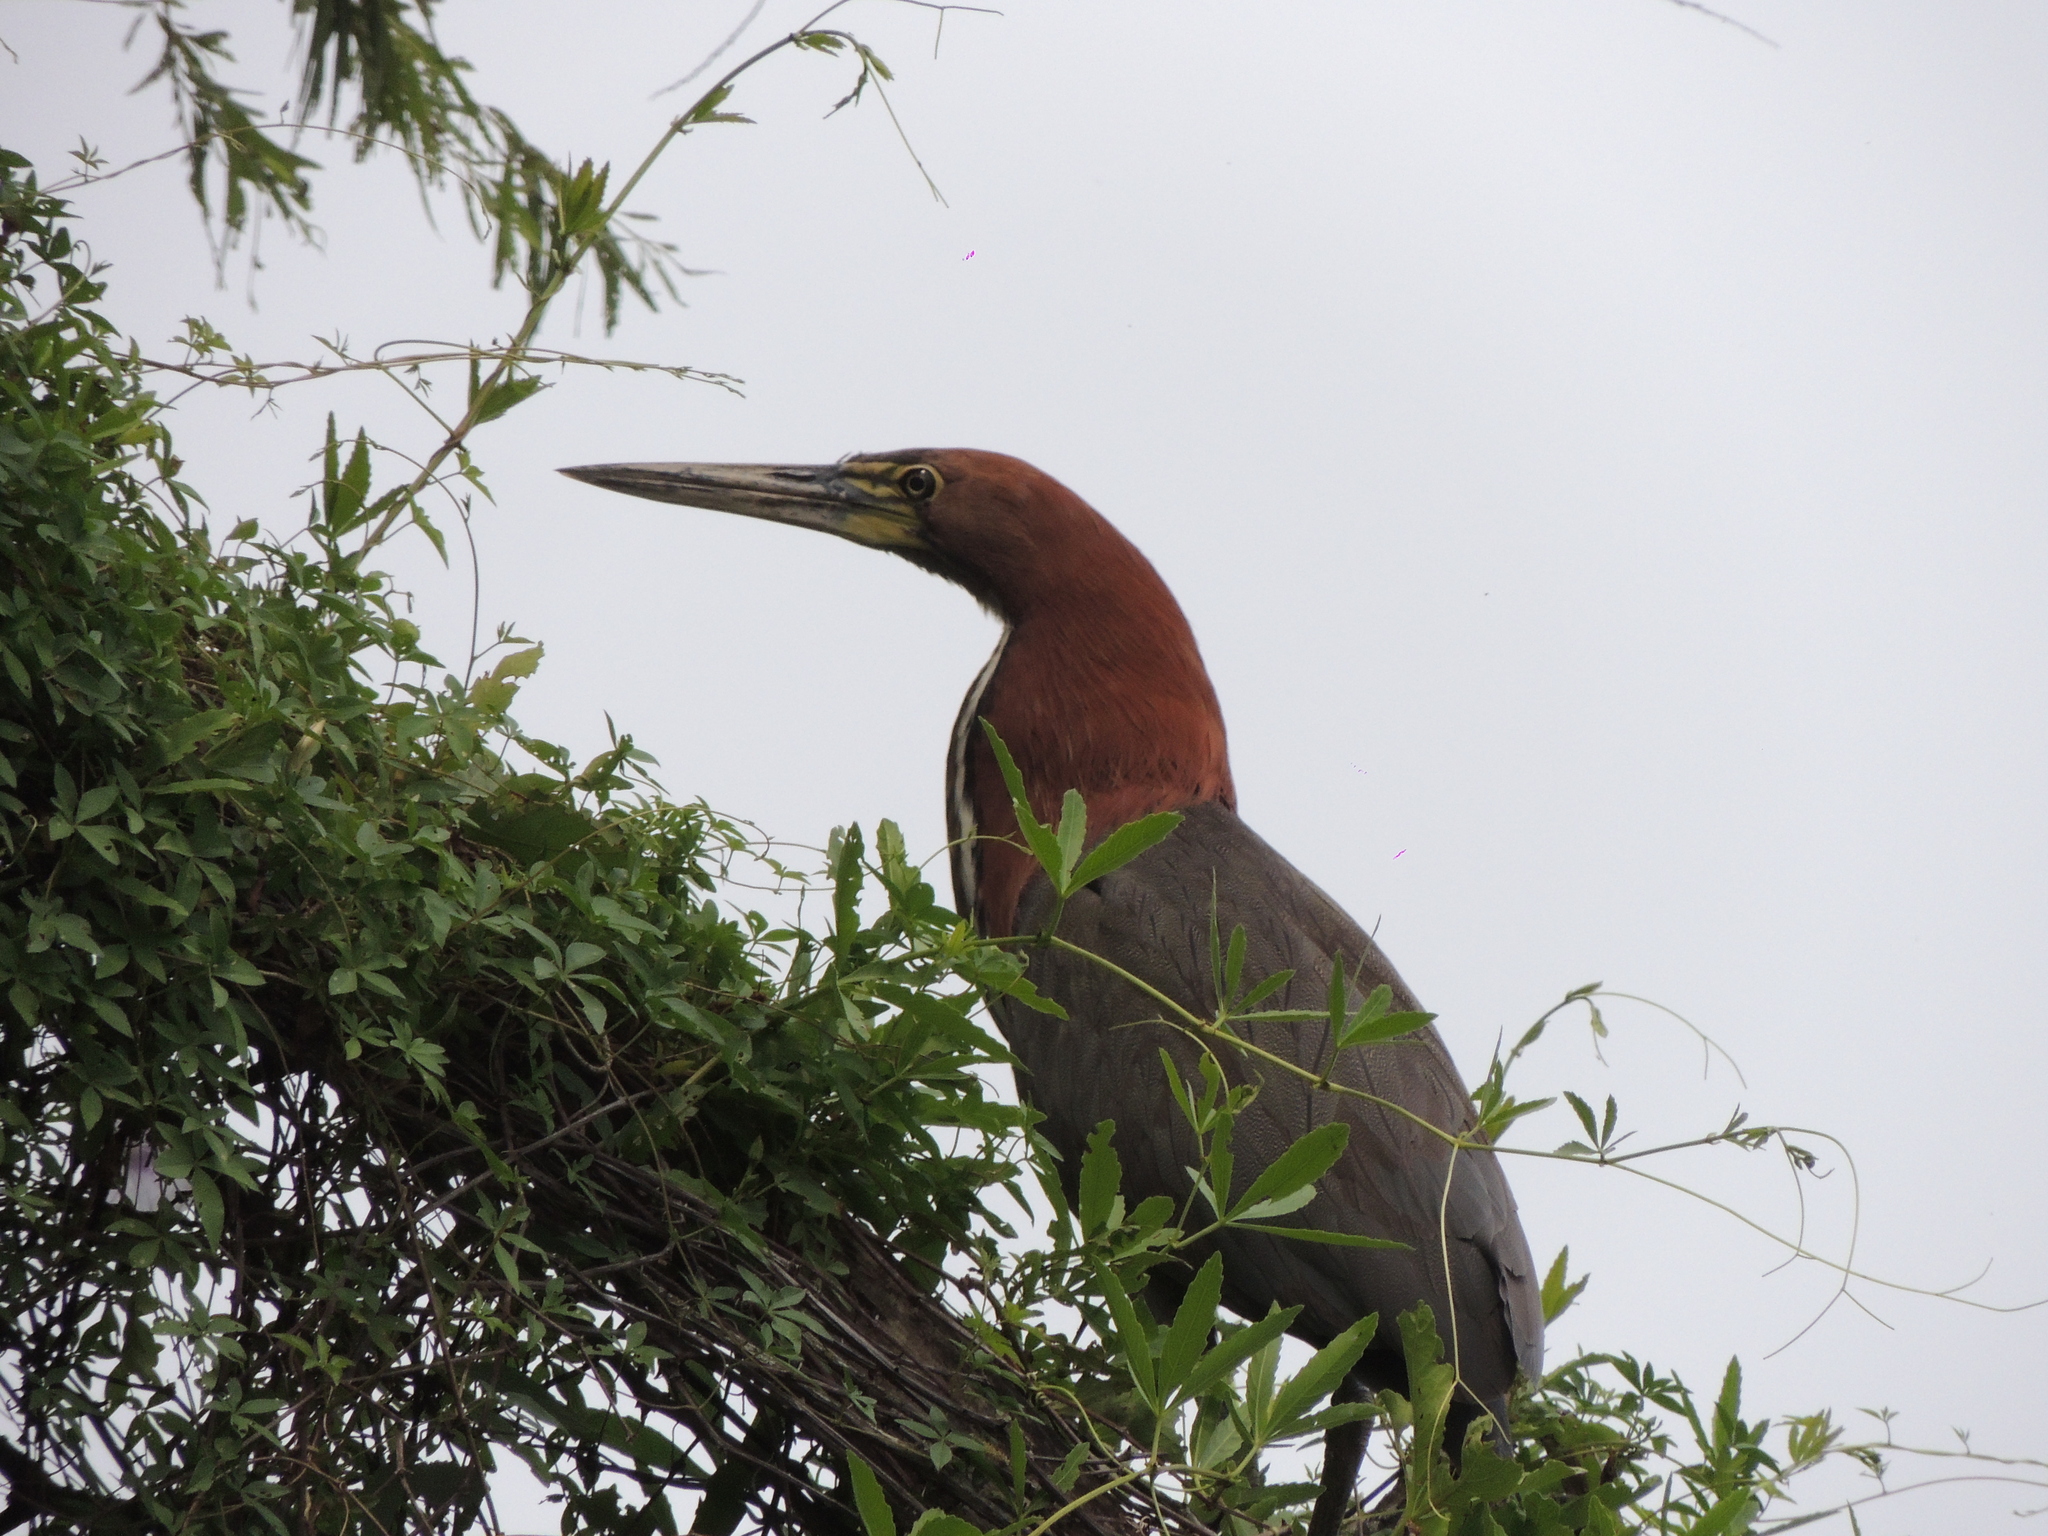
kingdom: Animalia
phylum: Chordata
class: Aves
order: Pelecaniformes
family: Ardeidae
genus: Tigrisoma
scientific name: Tigrisoma lineatum
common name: Rufescent tiger-heron
